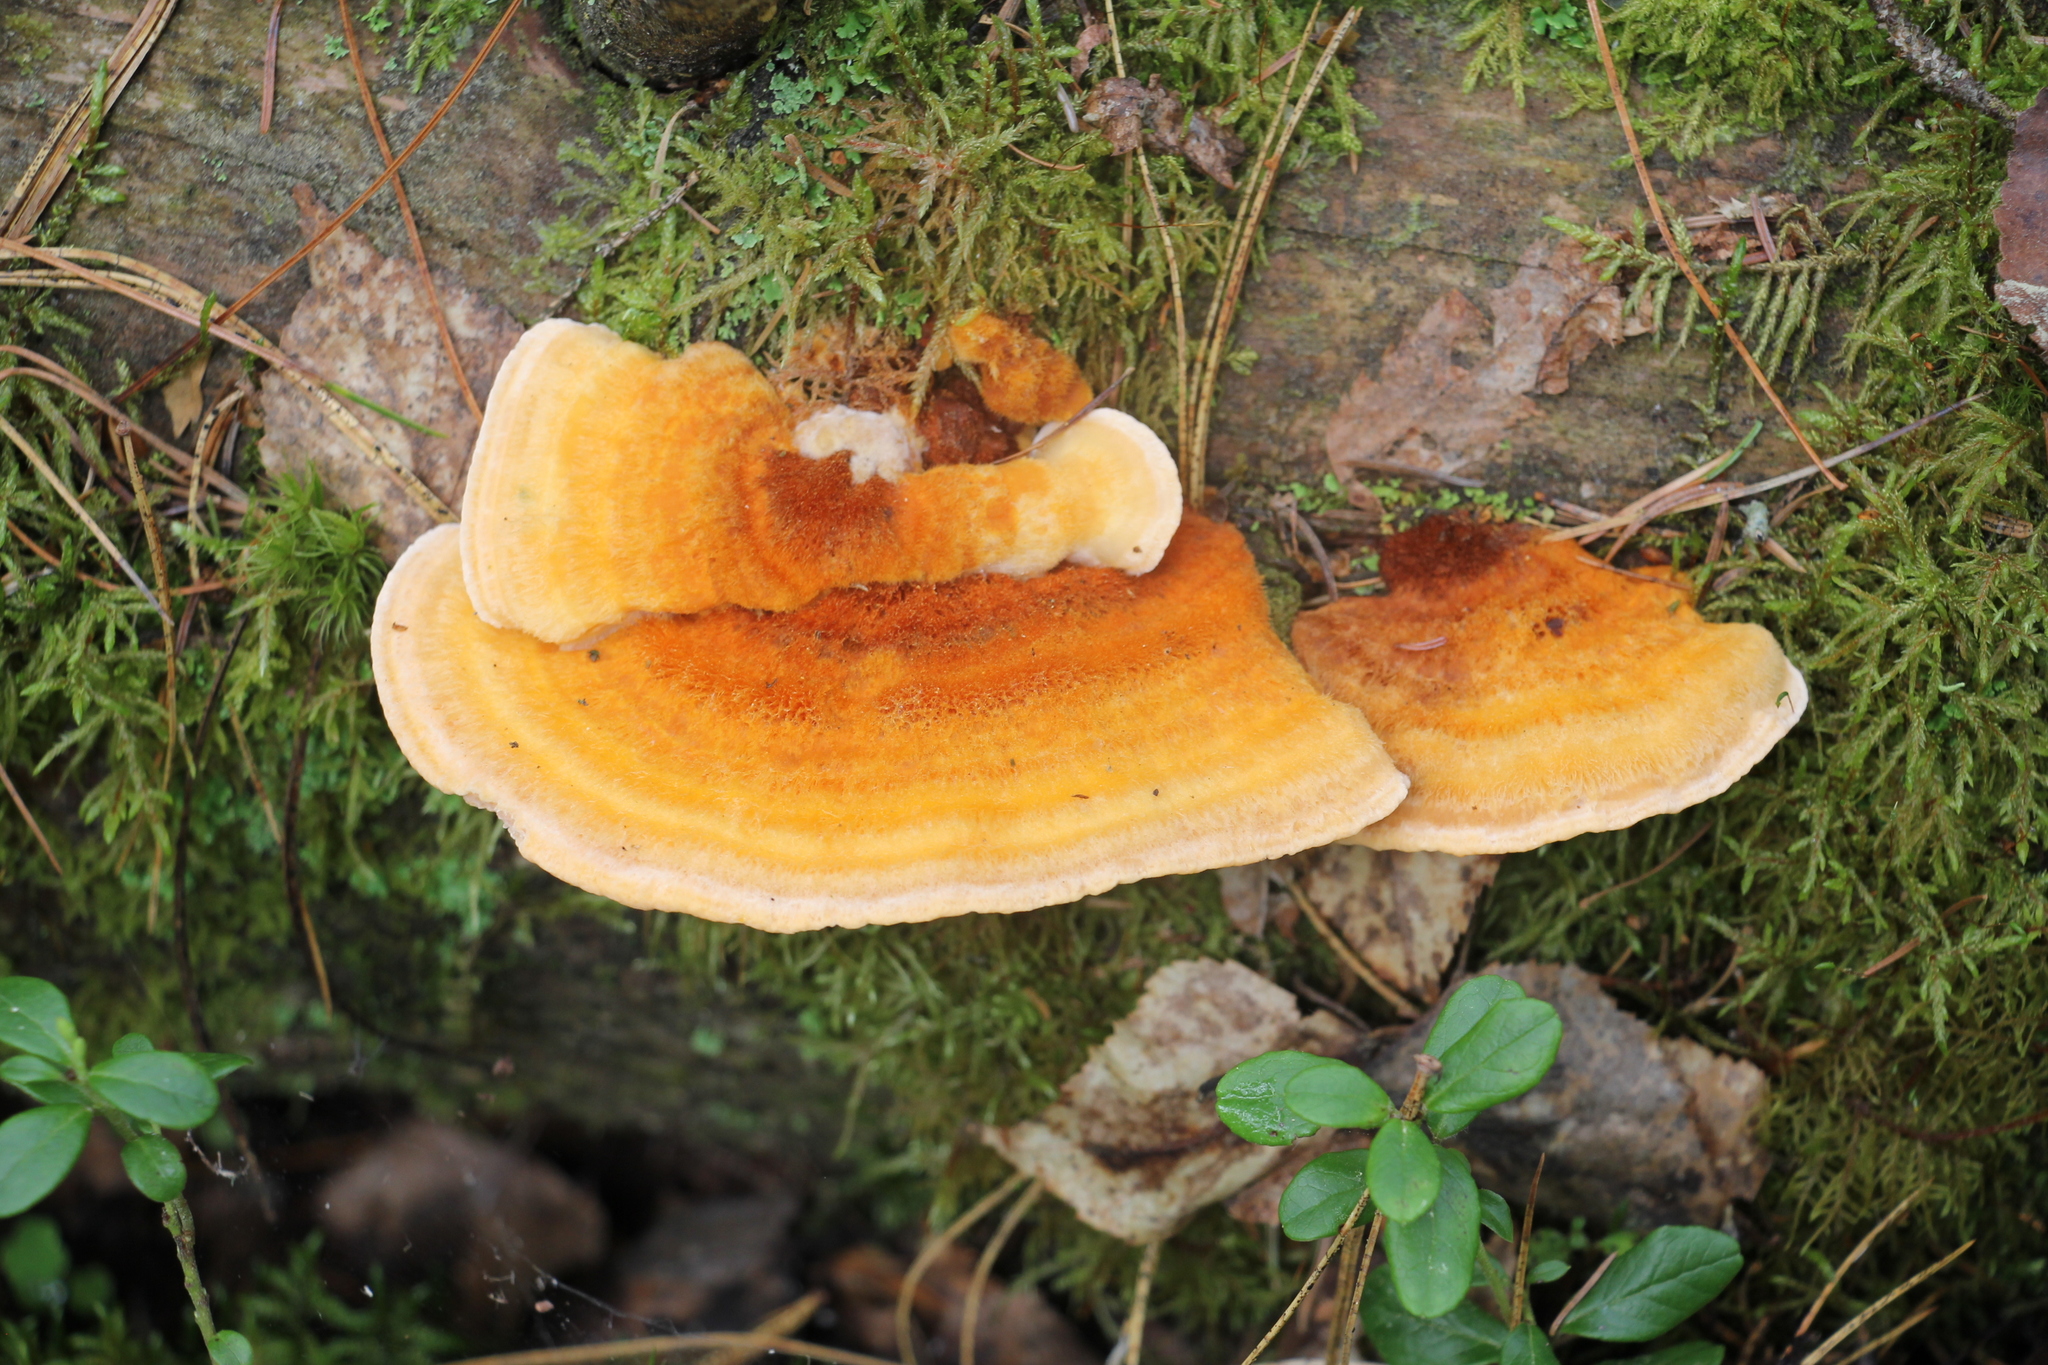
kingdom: Fungi
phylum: Basidiomycota
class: Agaricomycetes
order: Polyporales
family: Pycnoporellaceae
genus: Pycnoporellus
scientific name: Pycnoporellus fulgens
